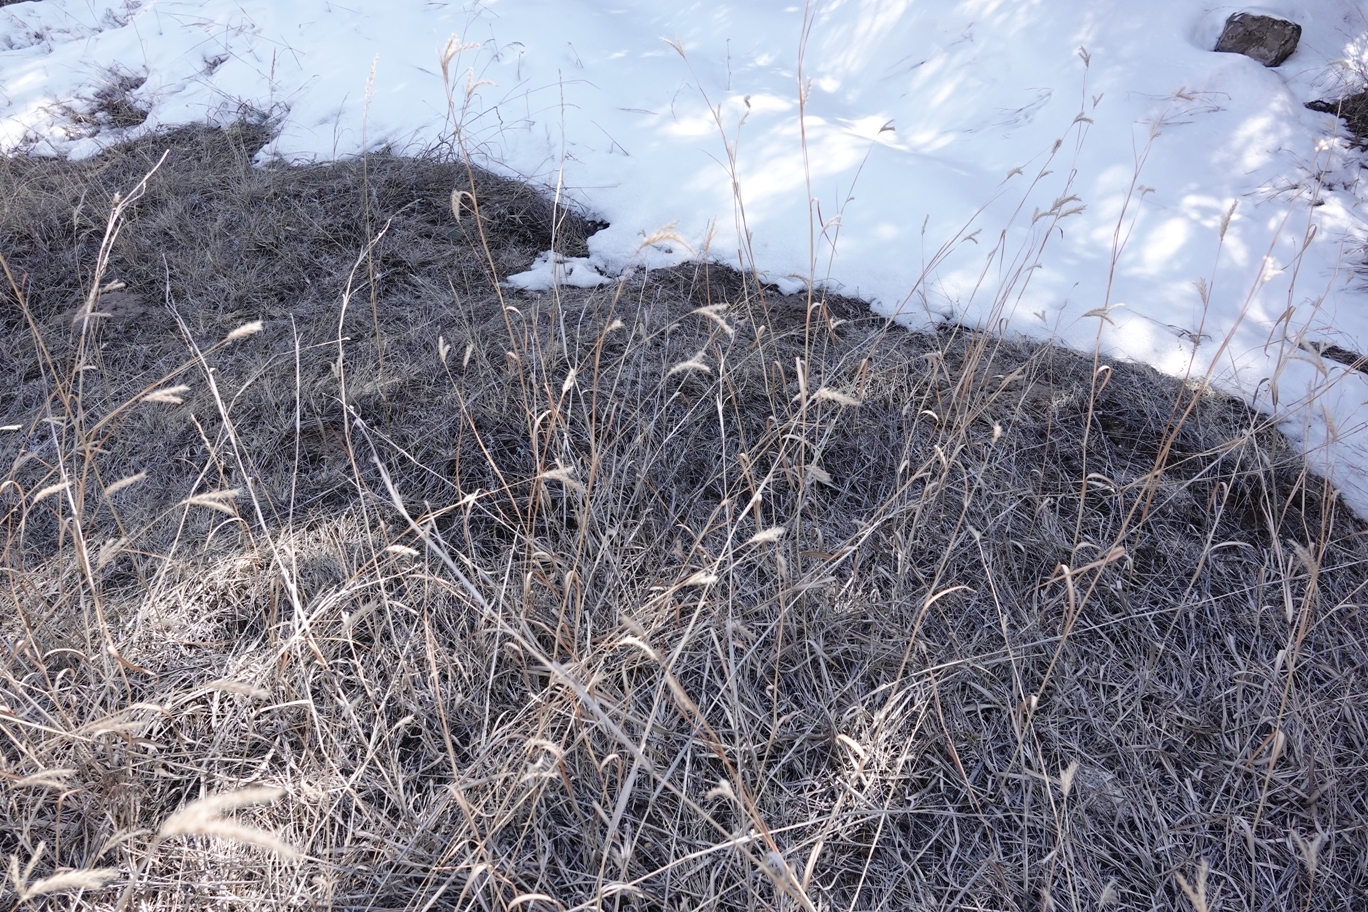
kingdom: Plantae
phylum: Tracheophyta
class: Liliopsida
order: Poales
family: Poaceae
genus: Andropogon
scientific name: Andropogon hallii
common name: Sand bluestem
